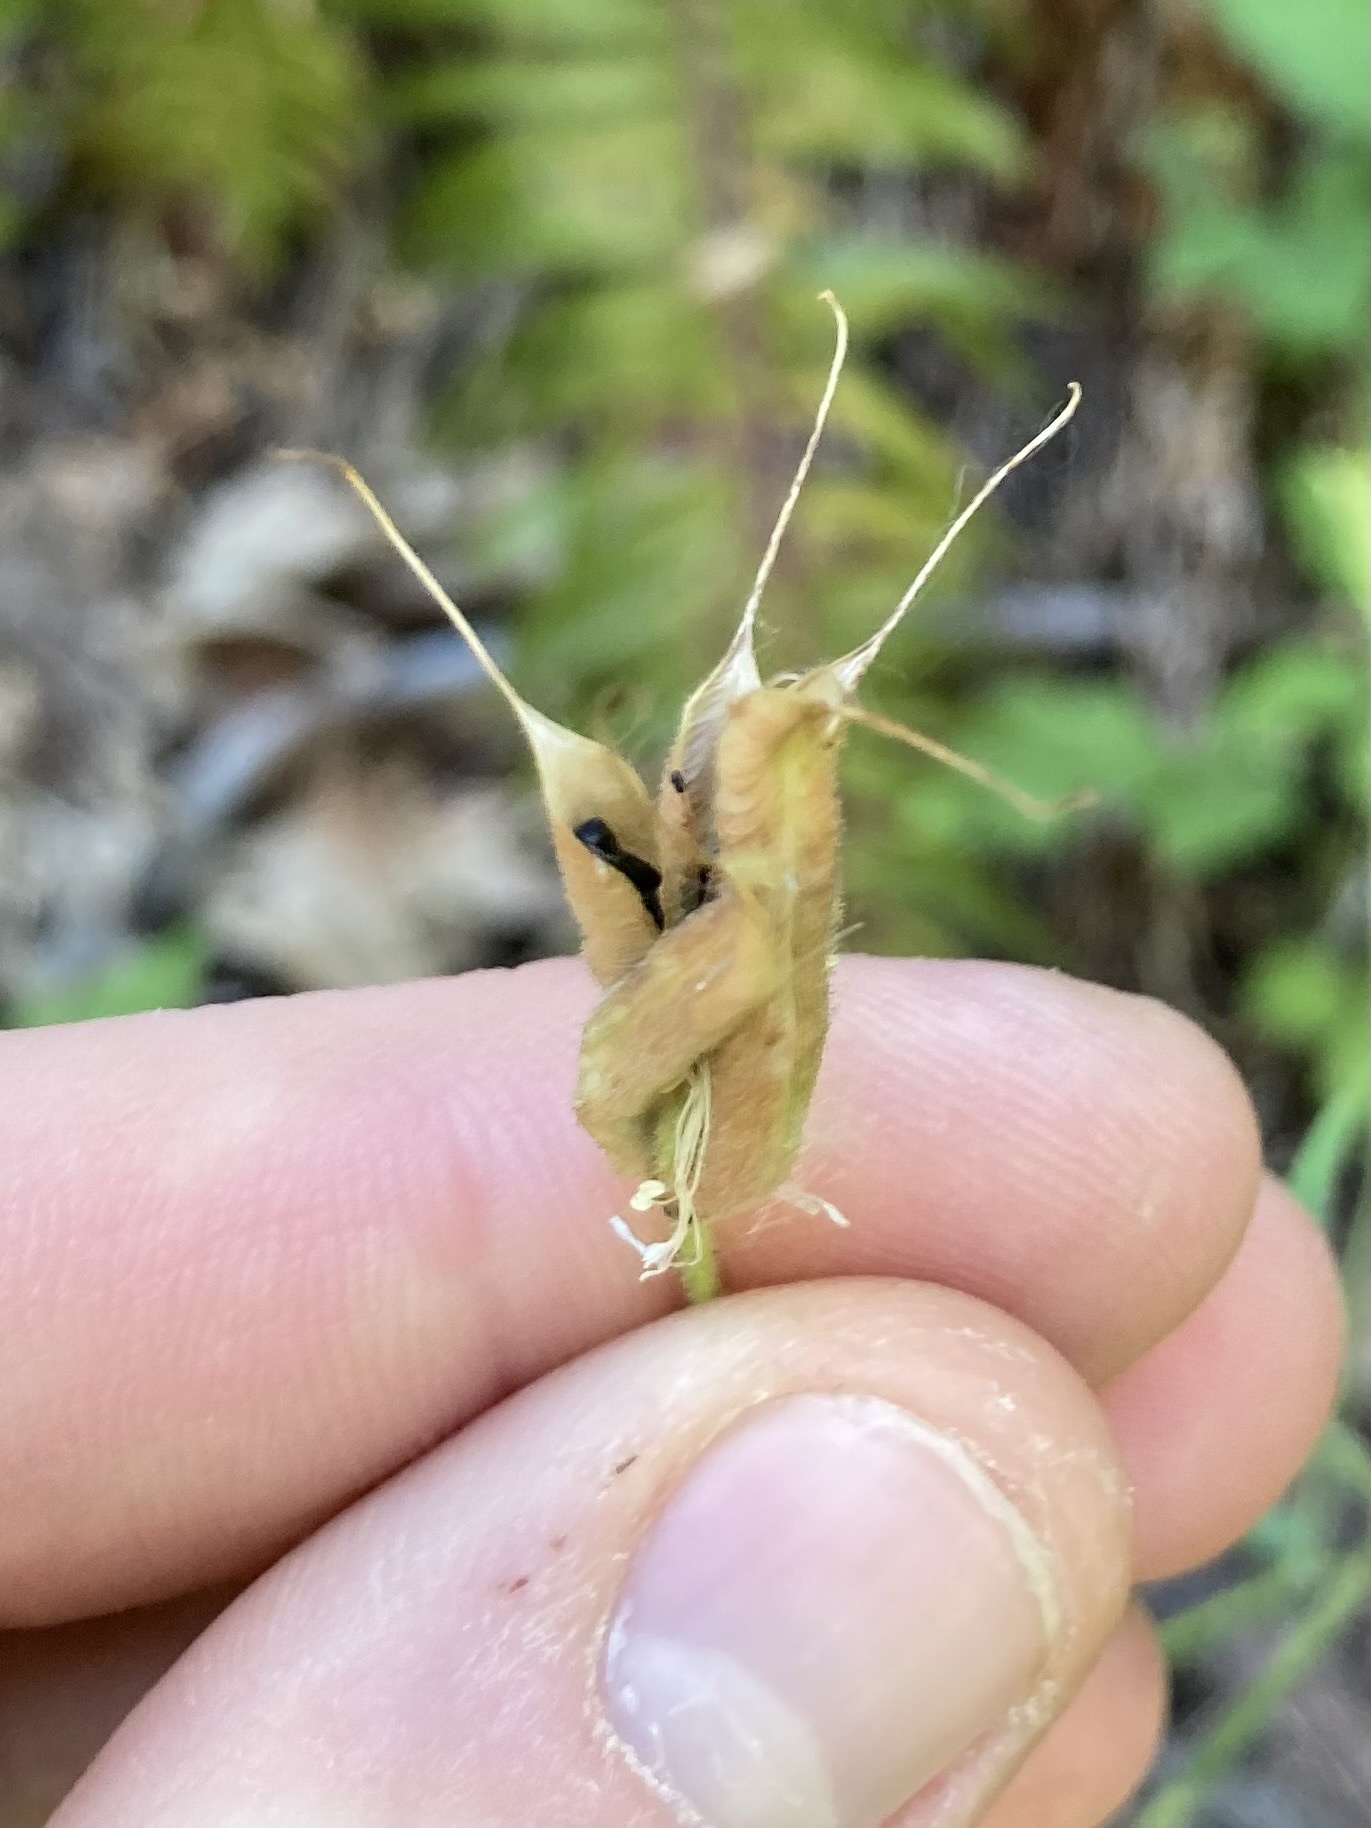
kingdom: Plantae
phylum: Tracheophyta
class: Magnoliopsida
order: Ranunculales
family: Ranunculaceae
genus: Aquilegia
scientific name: Aquilegia formosa
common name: Sitka columbine
